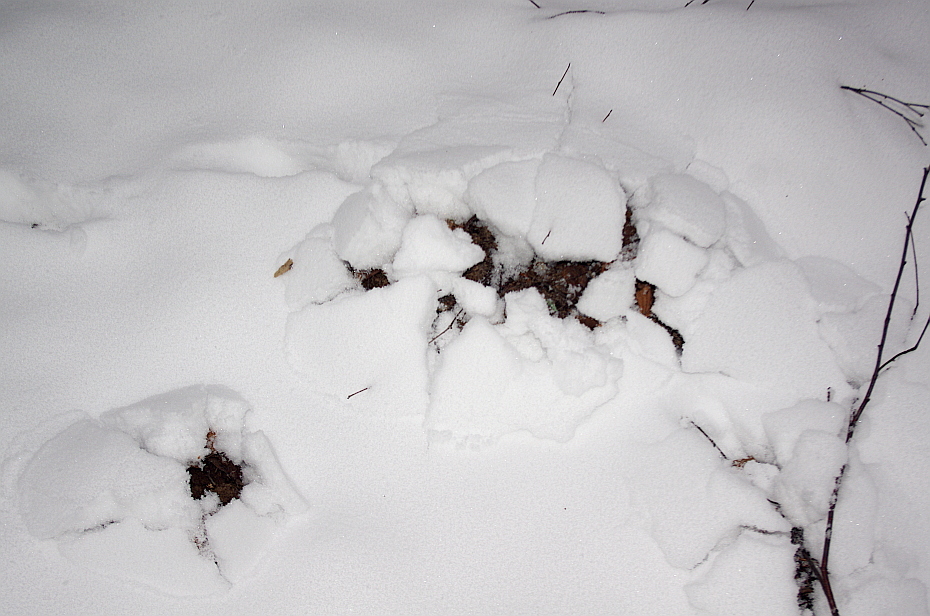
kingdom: Animalia
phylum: Chordata
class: Mammalia
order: Soricomorpha
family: Talpidae
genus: Talpa
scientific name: Talpa europaea
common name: European mole
